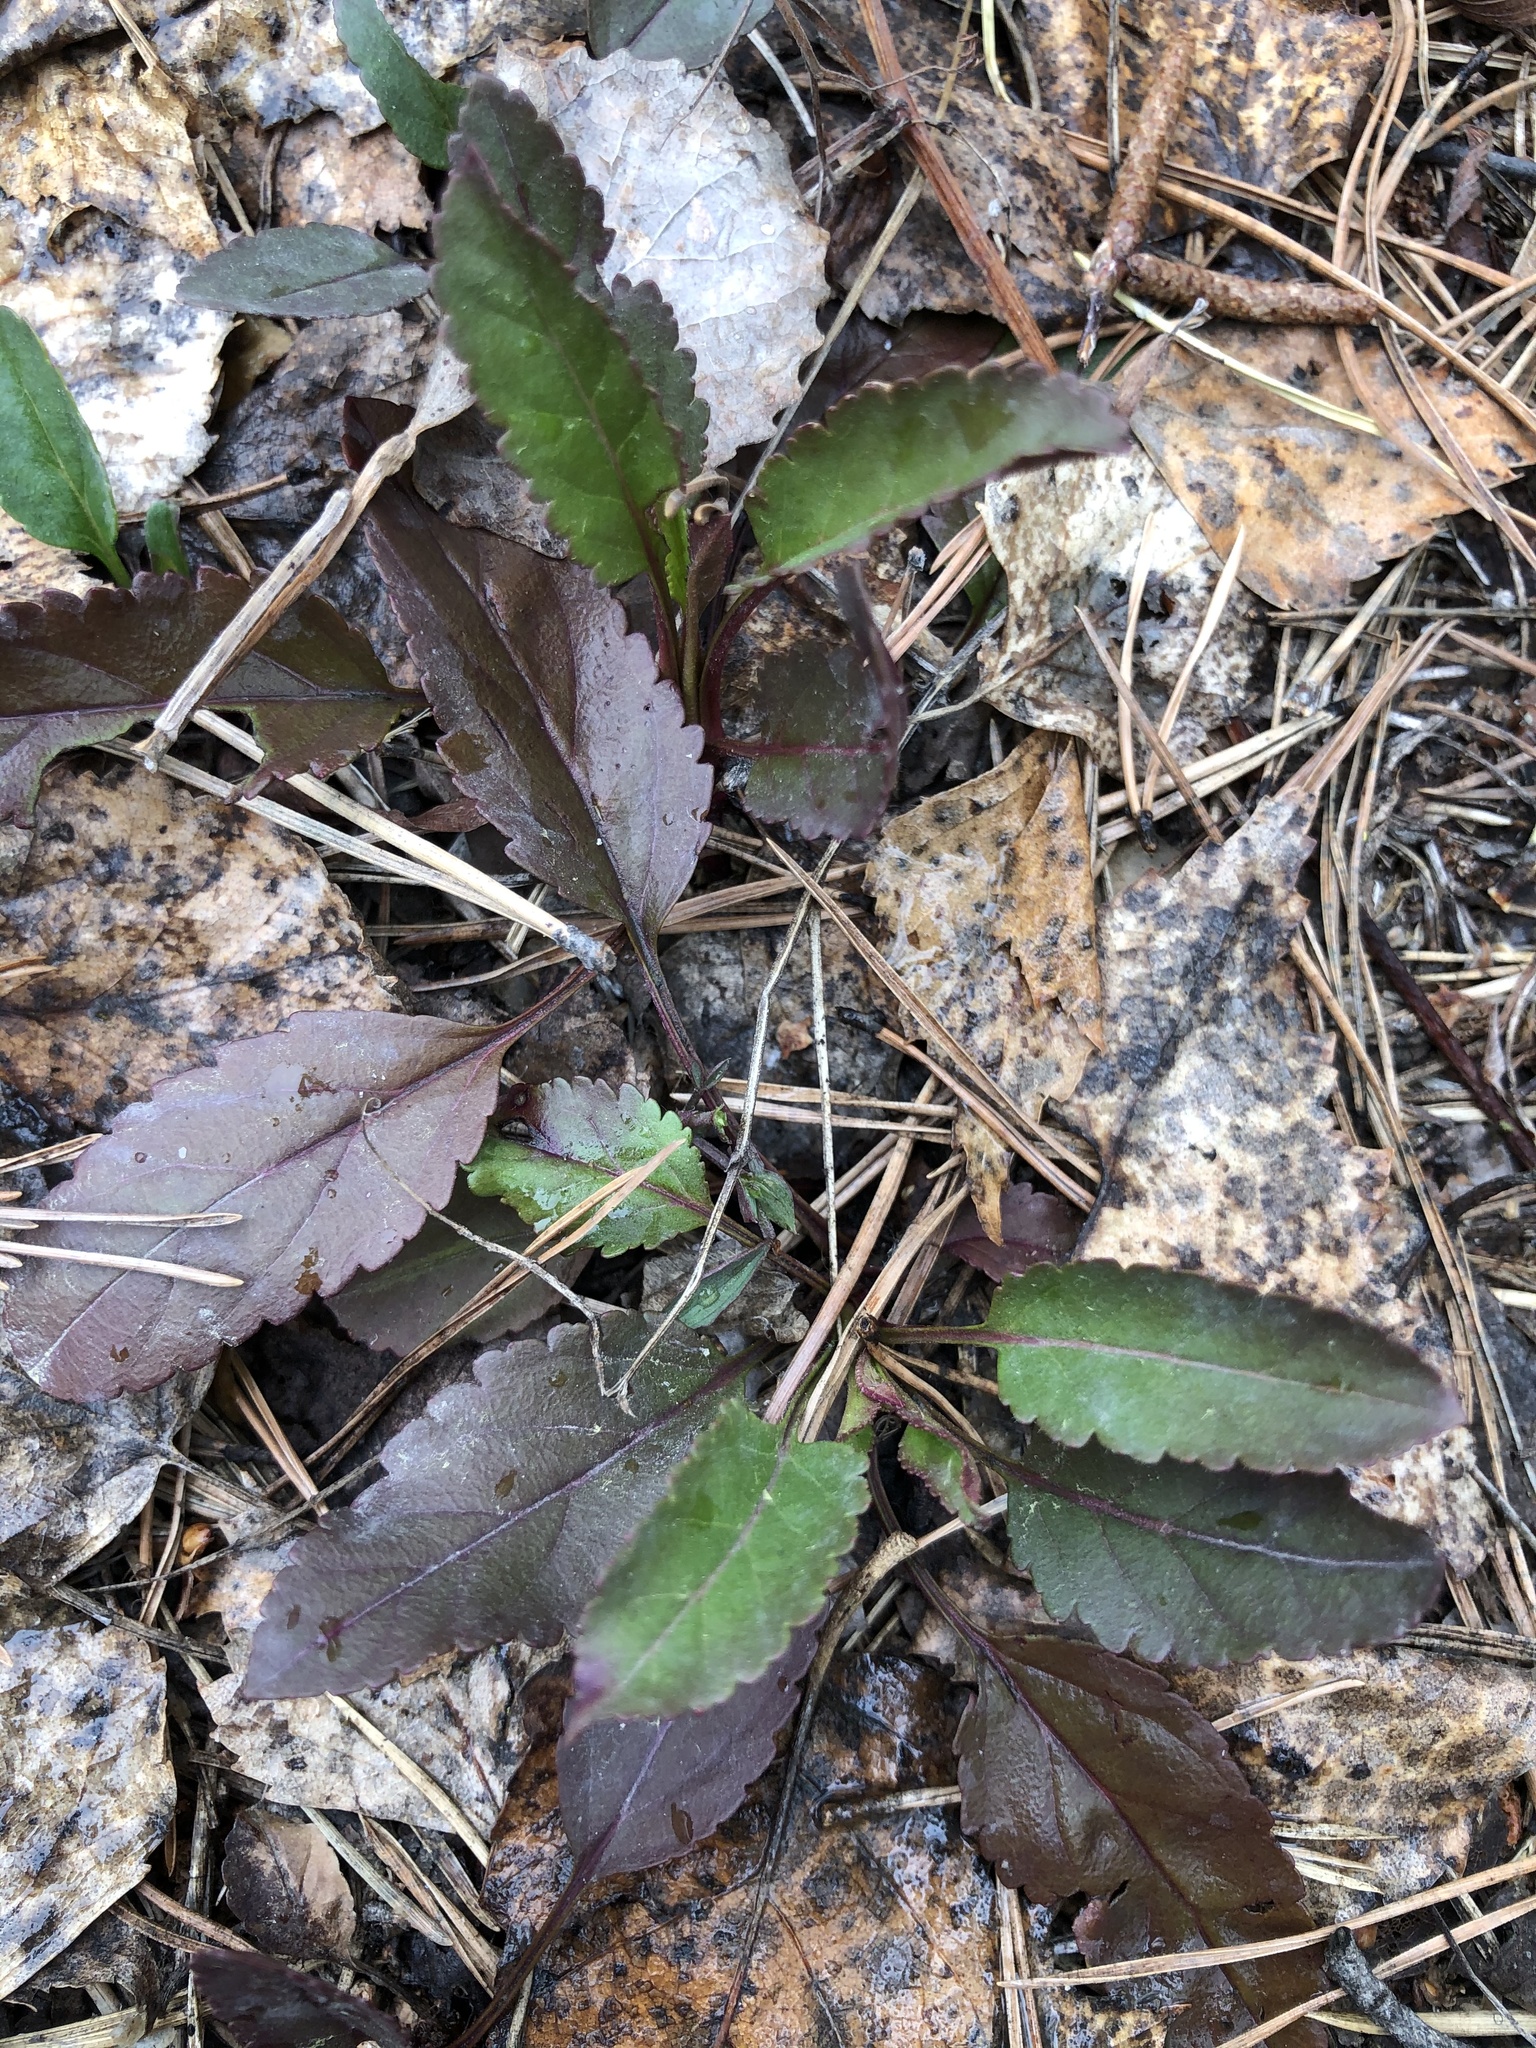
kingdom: Plantae
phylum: Tracheophyta
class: Magnoliopsida
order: Lamiales
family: Plantaginaceae
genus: Veronica
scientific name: Veronica spicata
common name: Spiked speedwell
